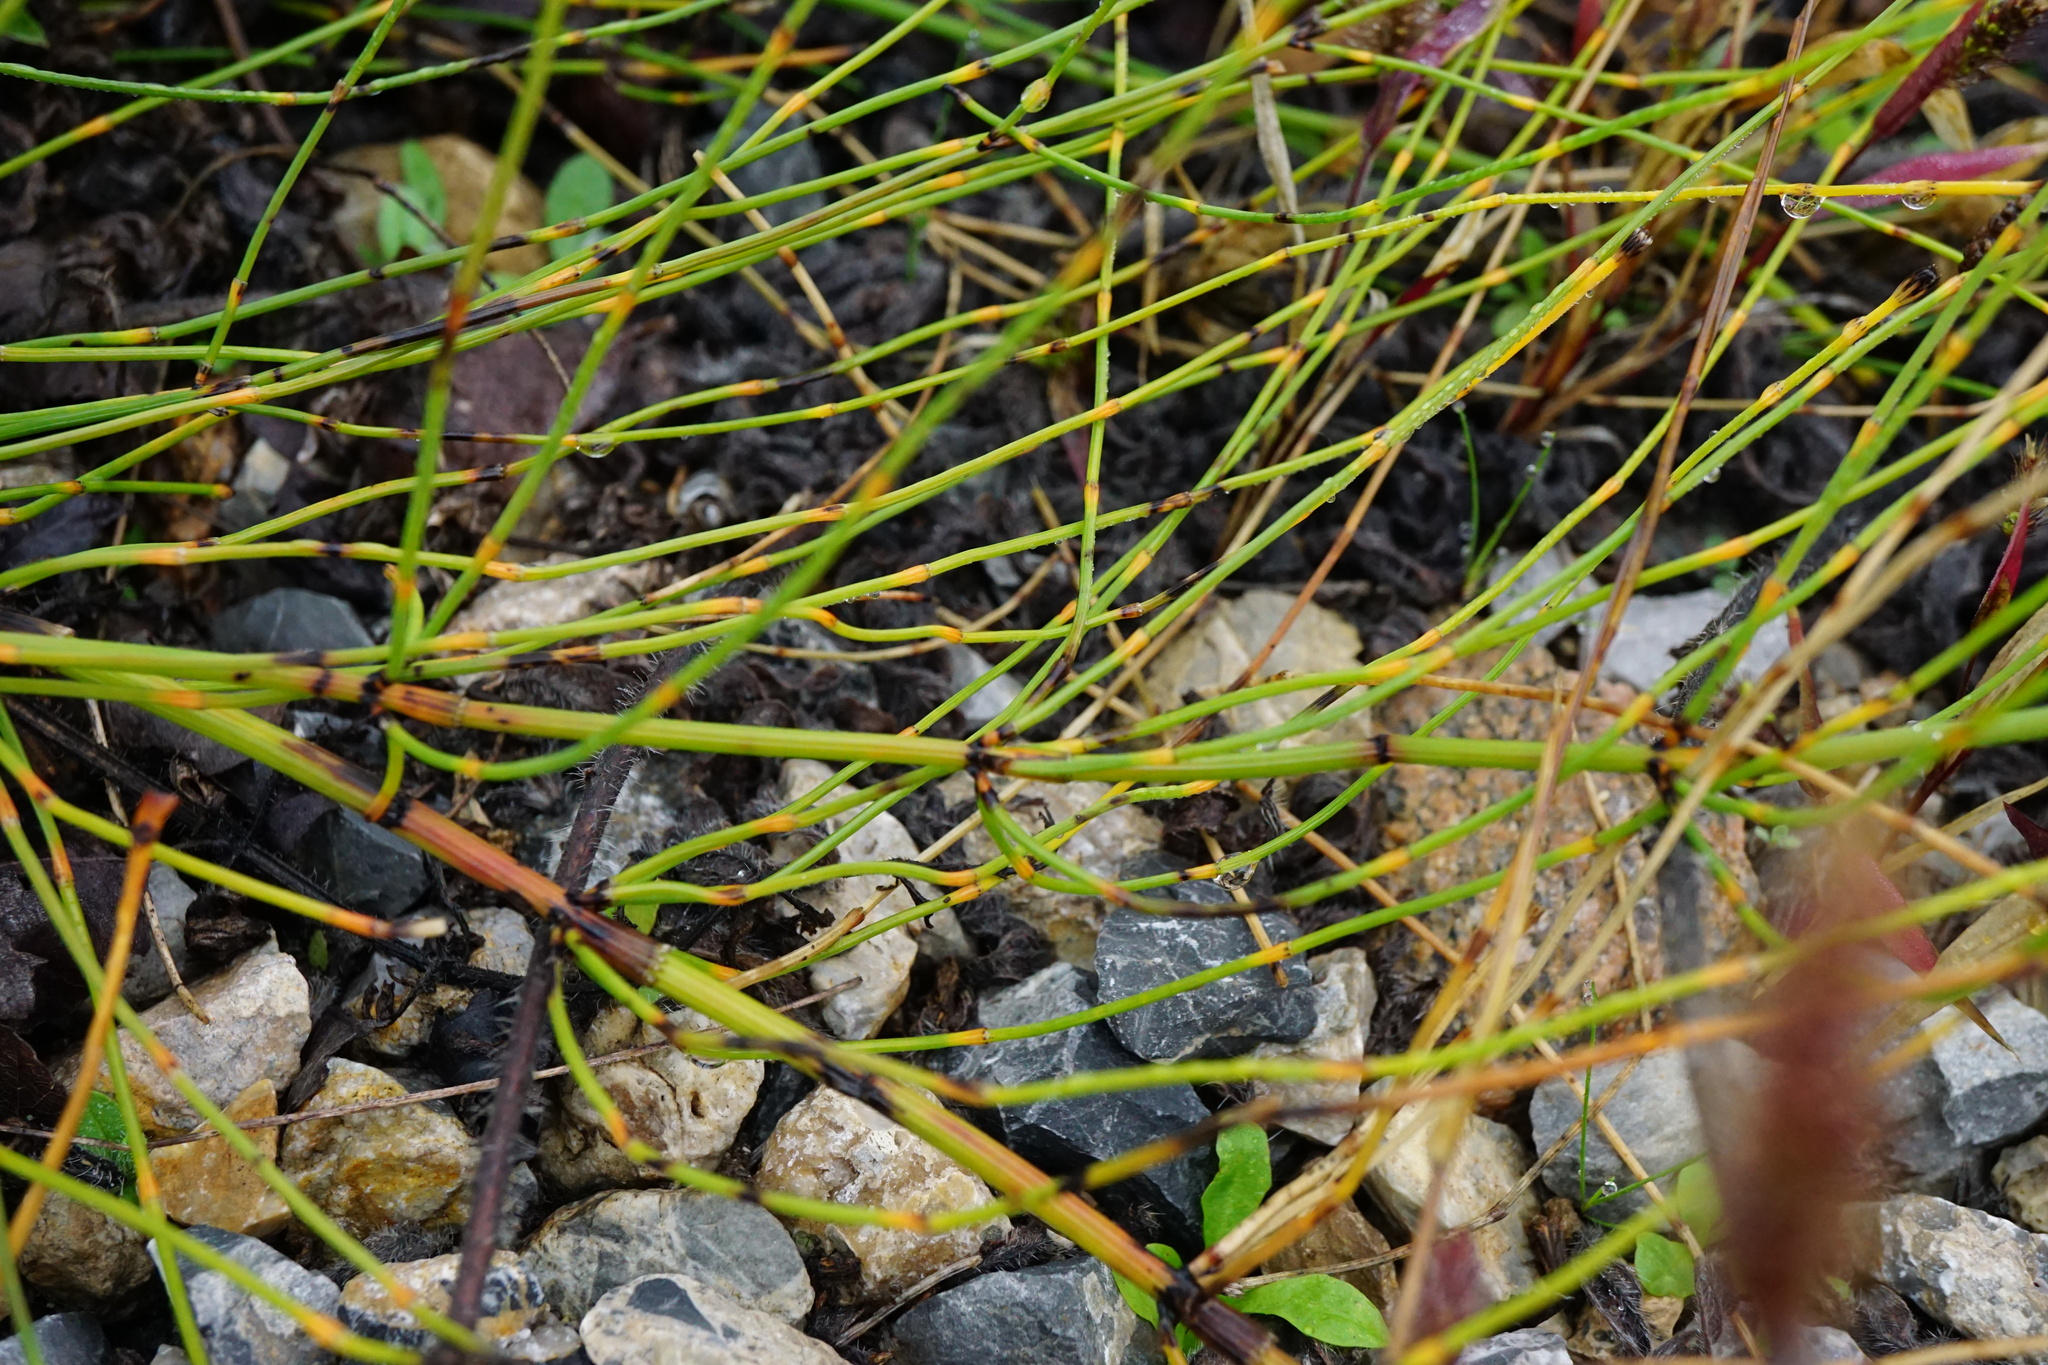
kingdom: Plantae
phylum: Tracheophyta
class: Polypodiopsida
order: Equisetales
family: Equisetaceae
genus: Equisetum
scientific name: Equisetum ramosissimum
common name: Branched horsetail
